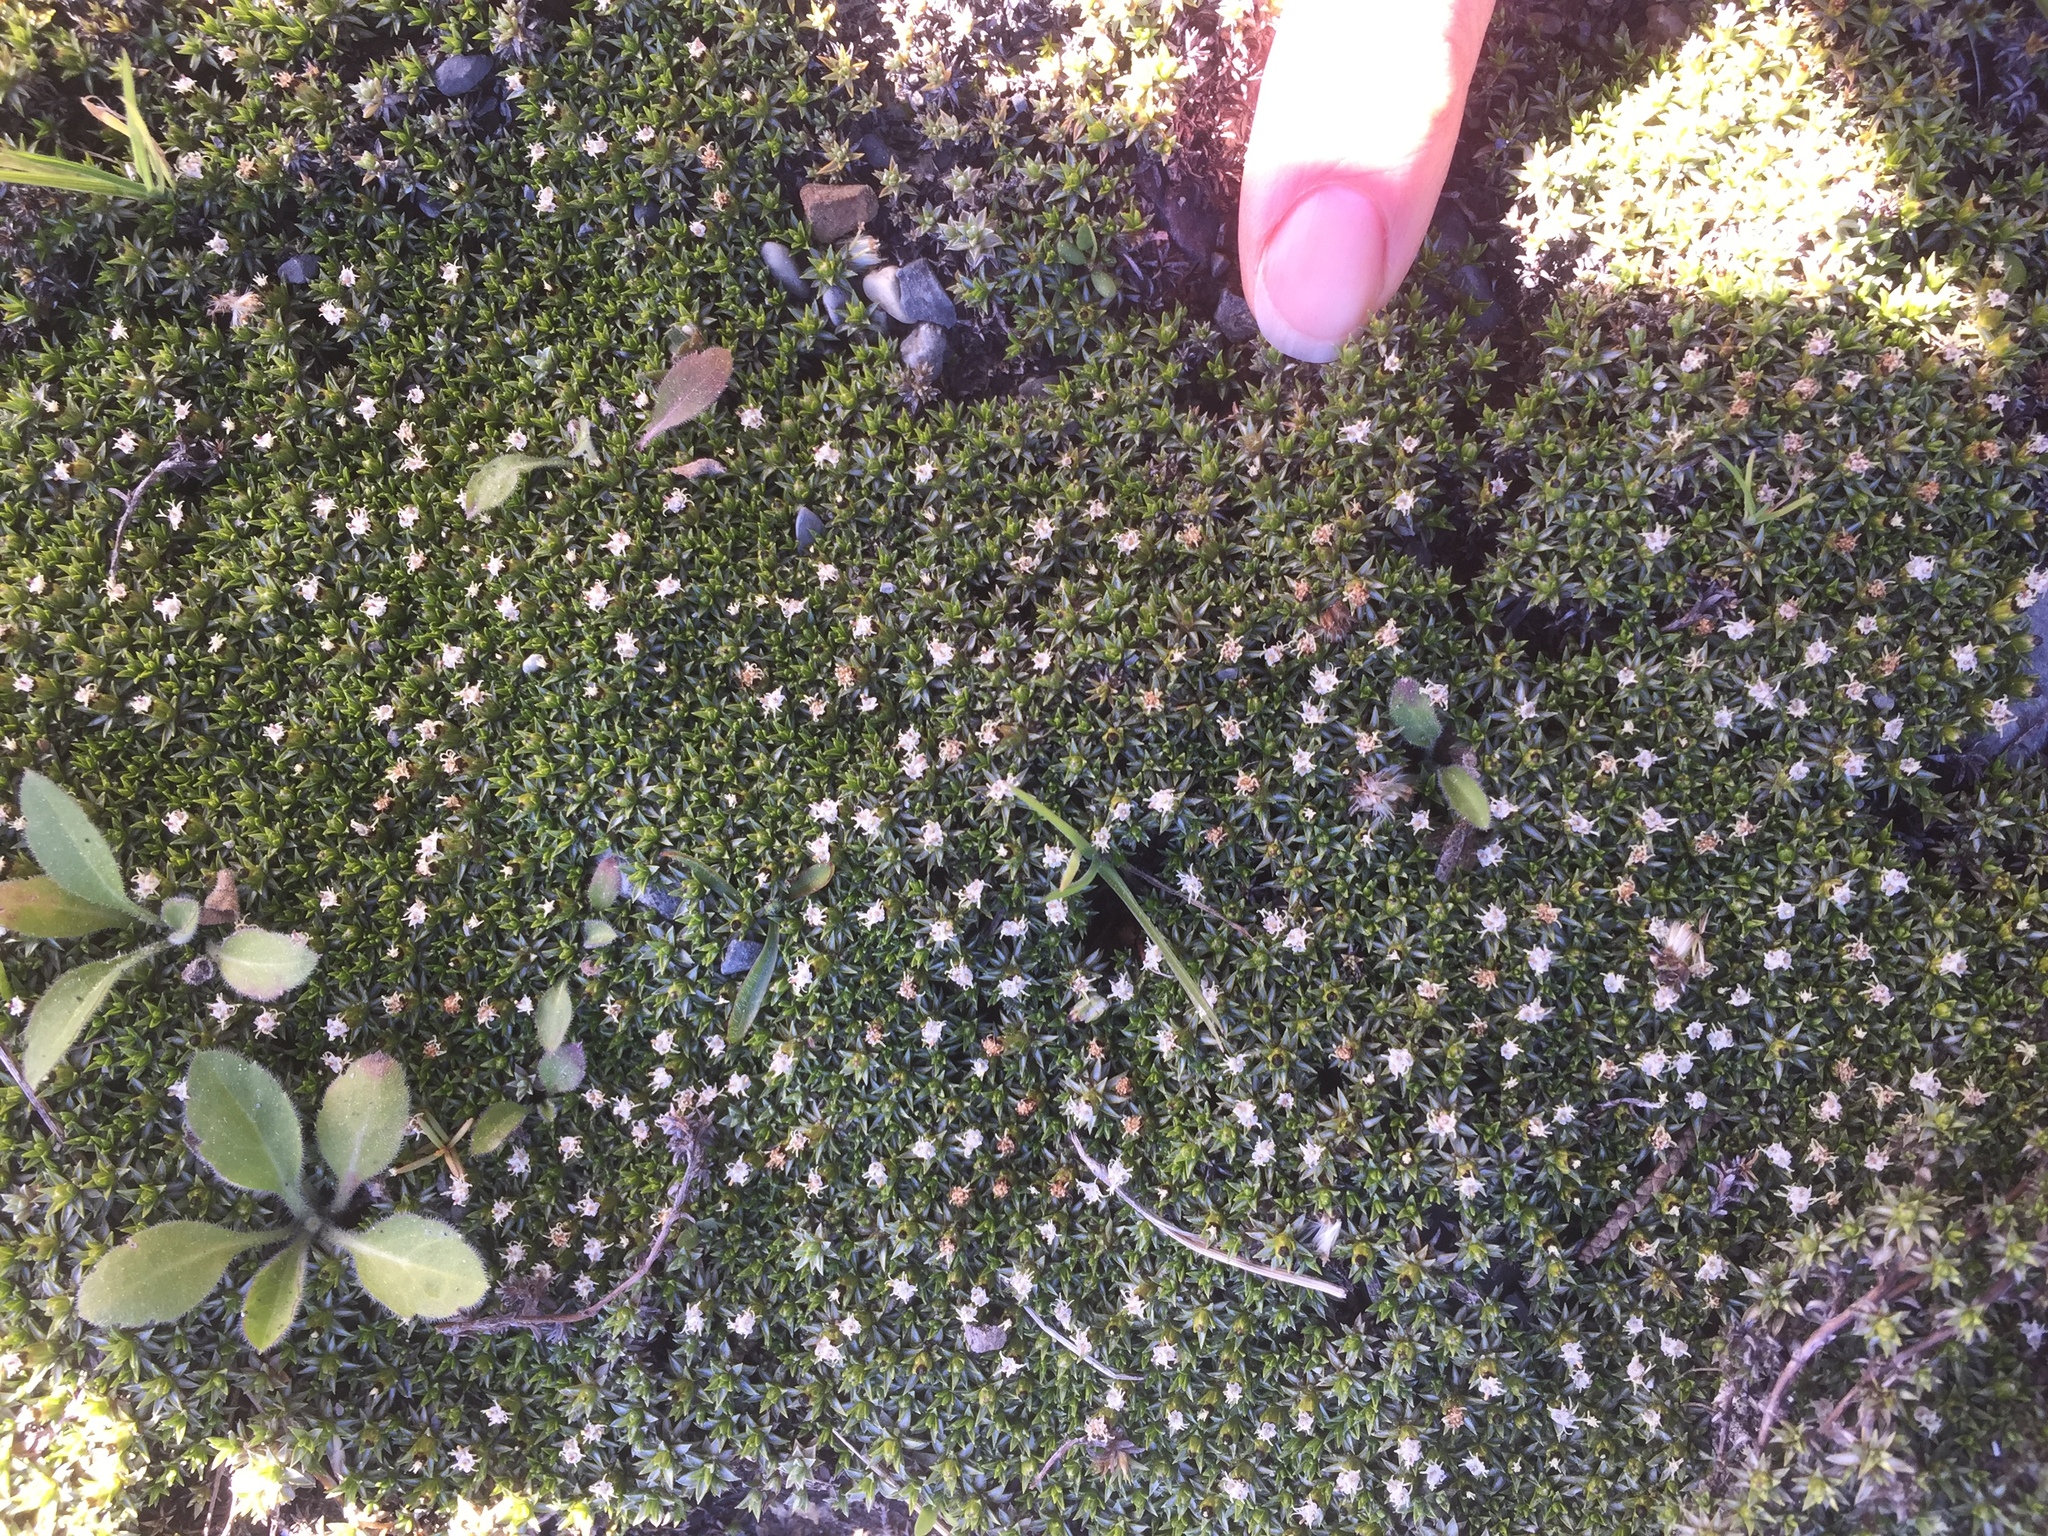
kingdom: Plantae
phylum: Tracheophyta
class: Magnoliopsida
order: Asterales
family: Asteraceae
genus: Raoulia
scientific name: Raoulia tenuicaulis
